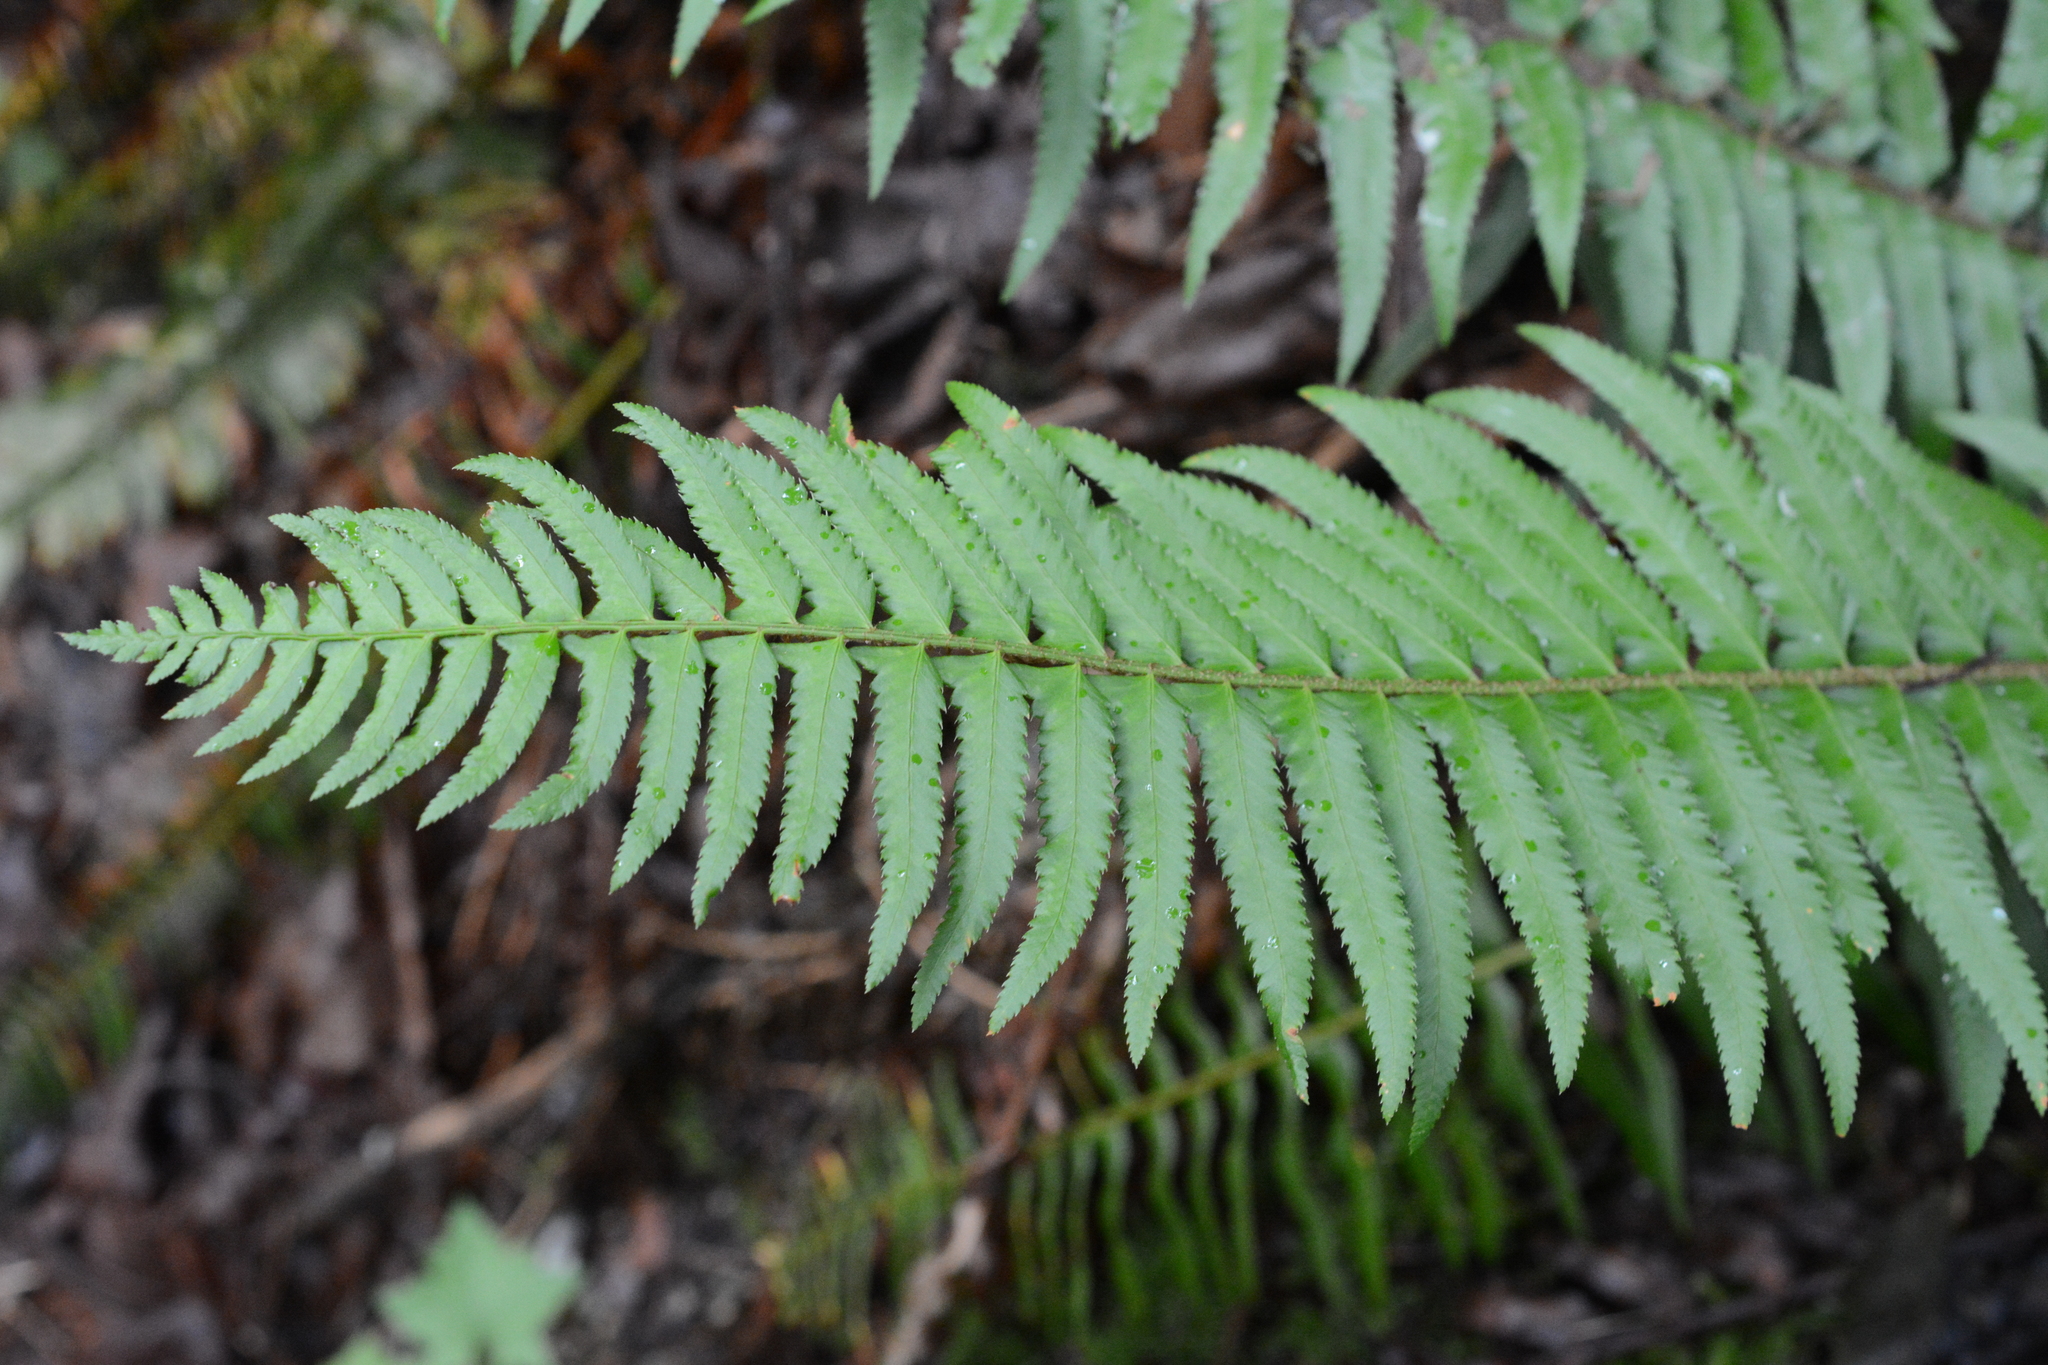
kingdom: Plantae
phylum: Tracheophyta
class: Polypodiopsida
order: Polypodiales
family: Dryopteridaceae
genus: Polystichum
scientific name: Polystichum munitum
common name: Western sword-fern
